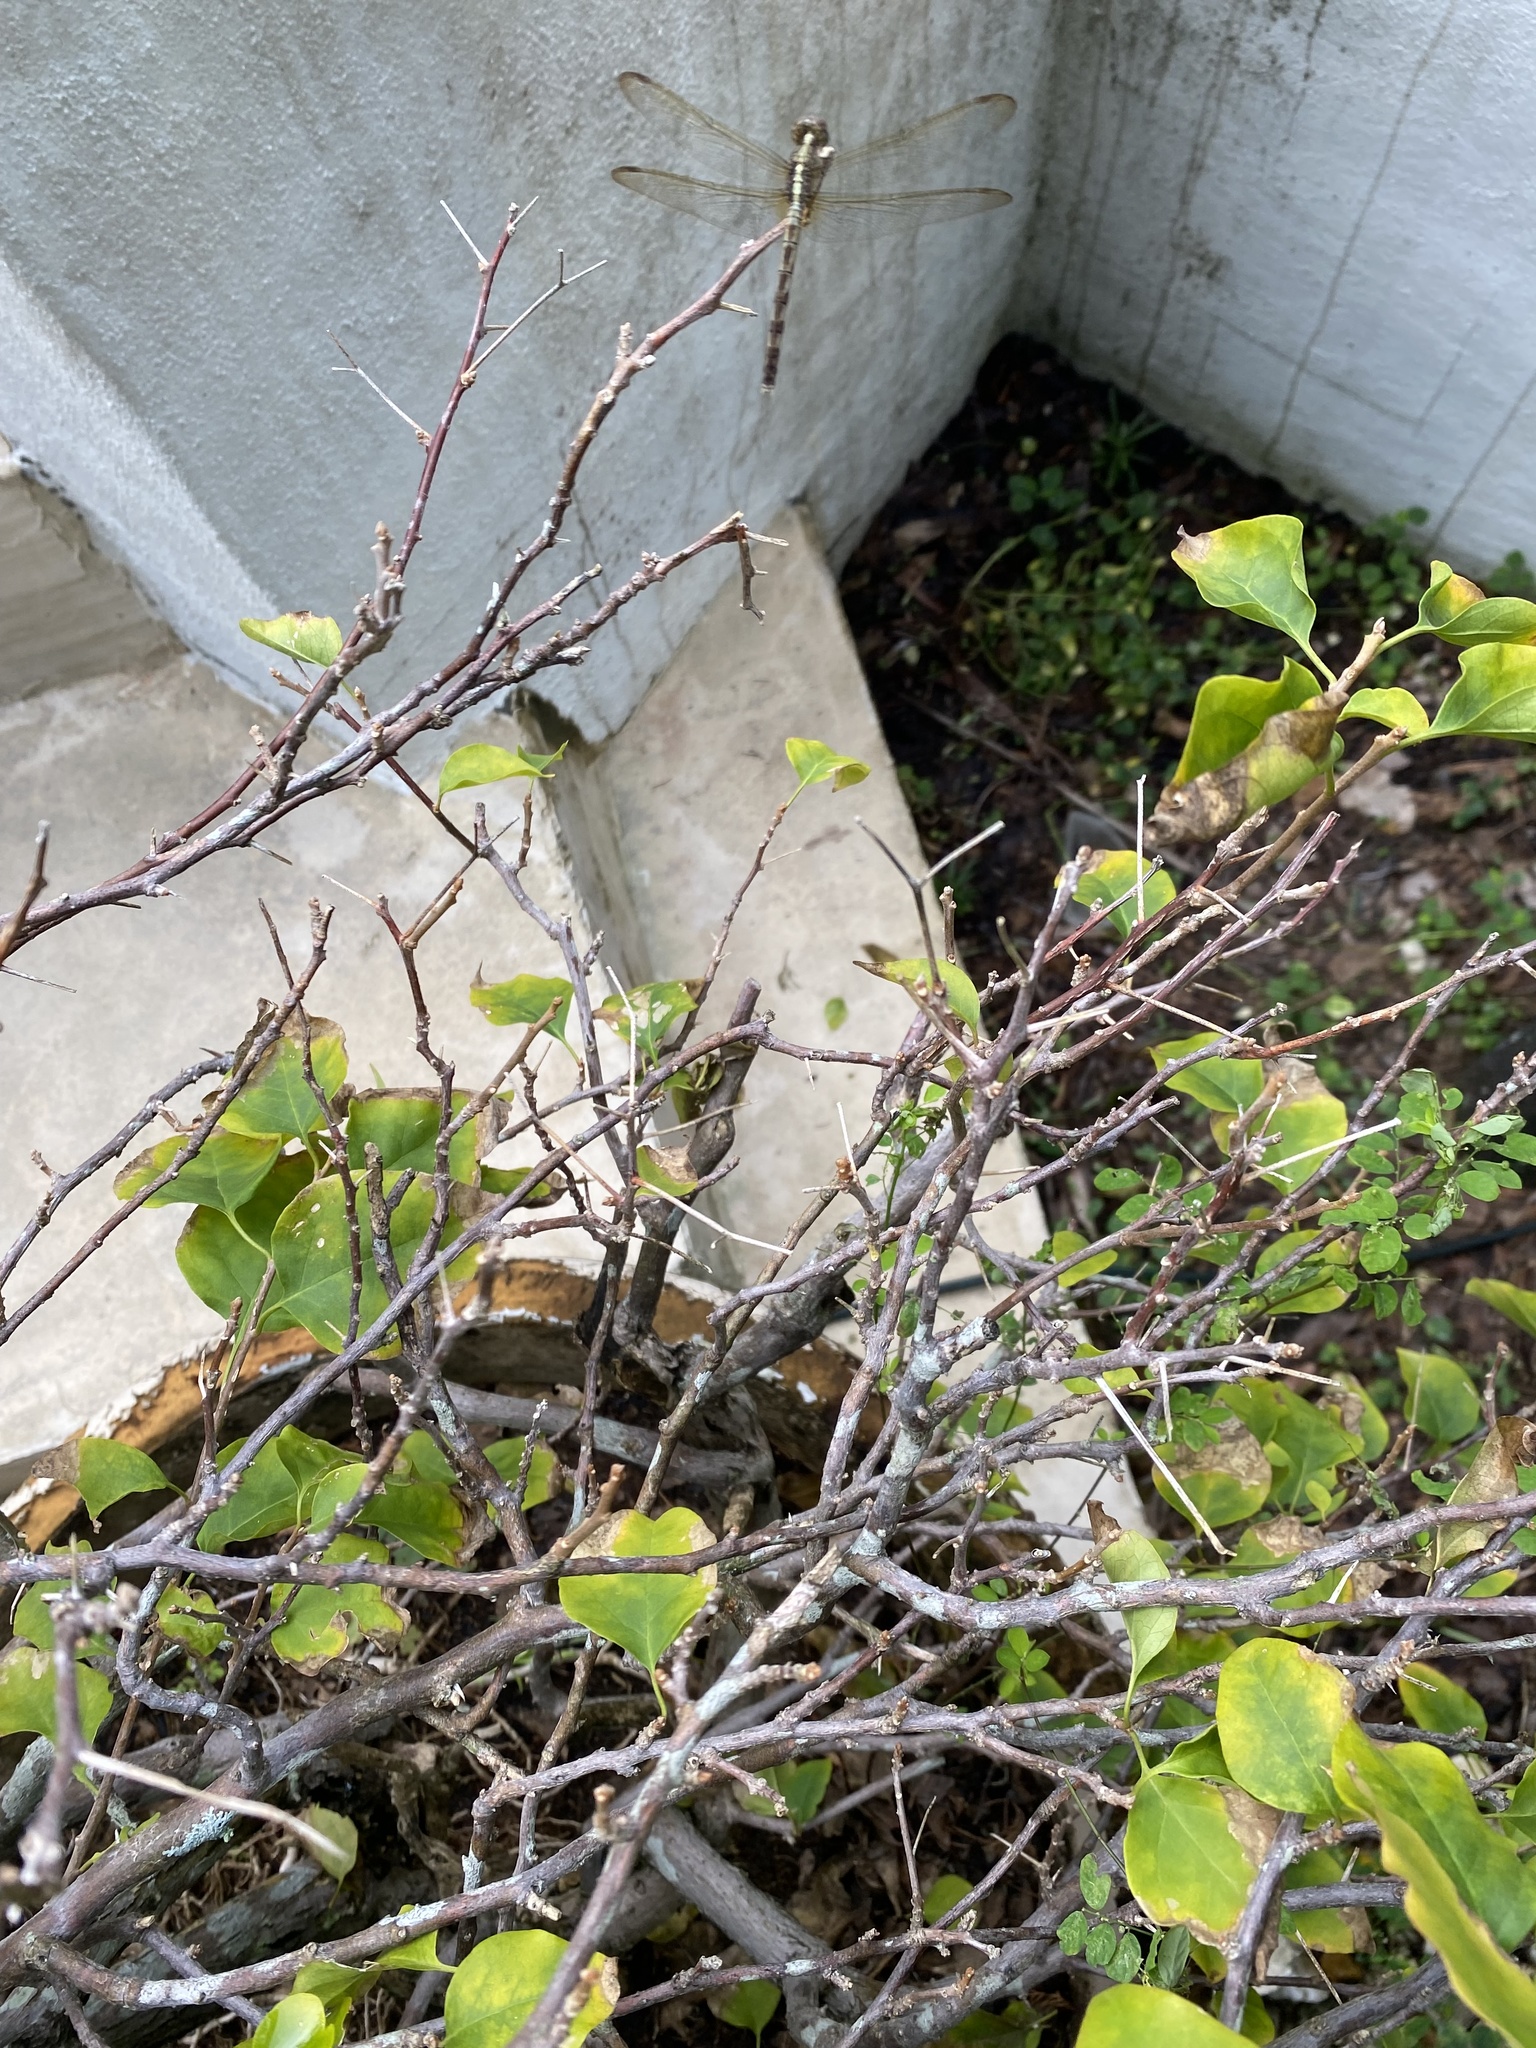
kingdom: Animalia
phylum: Arthropoda
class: Insecta
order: Odonata
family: Libellulidae
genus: Erythrodiplax
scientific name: Erythrodiplax umbrata
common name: Band-winged dragonlet
